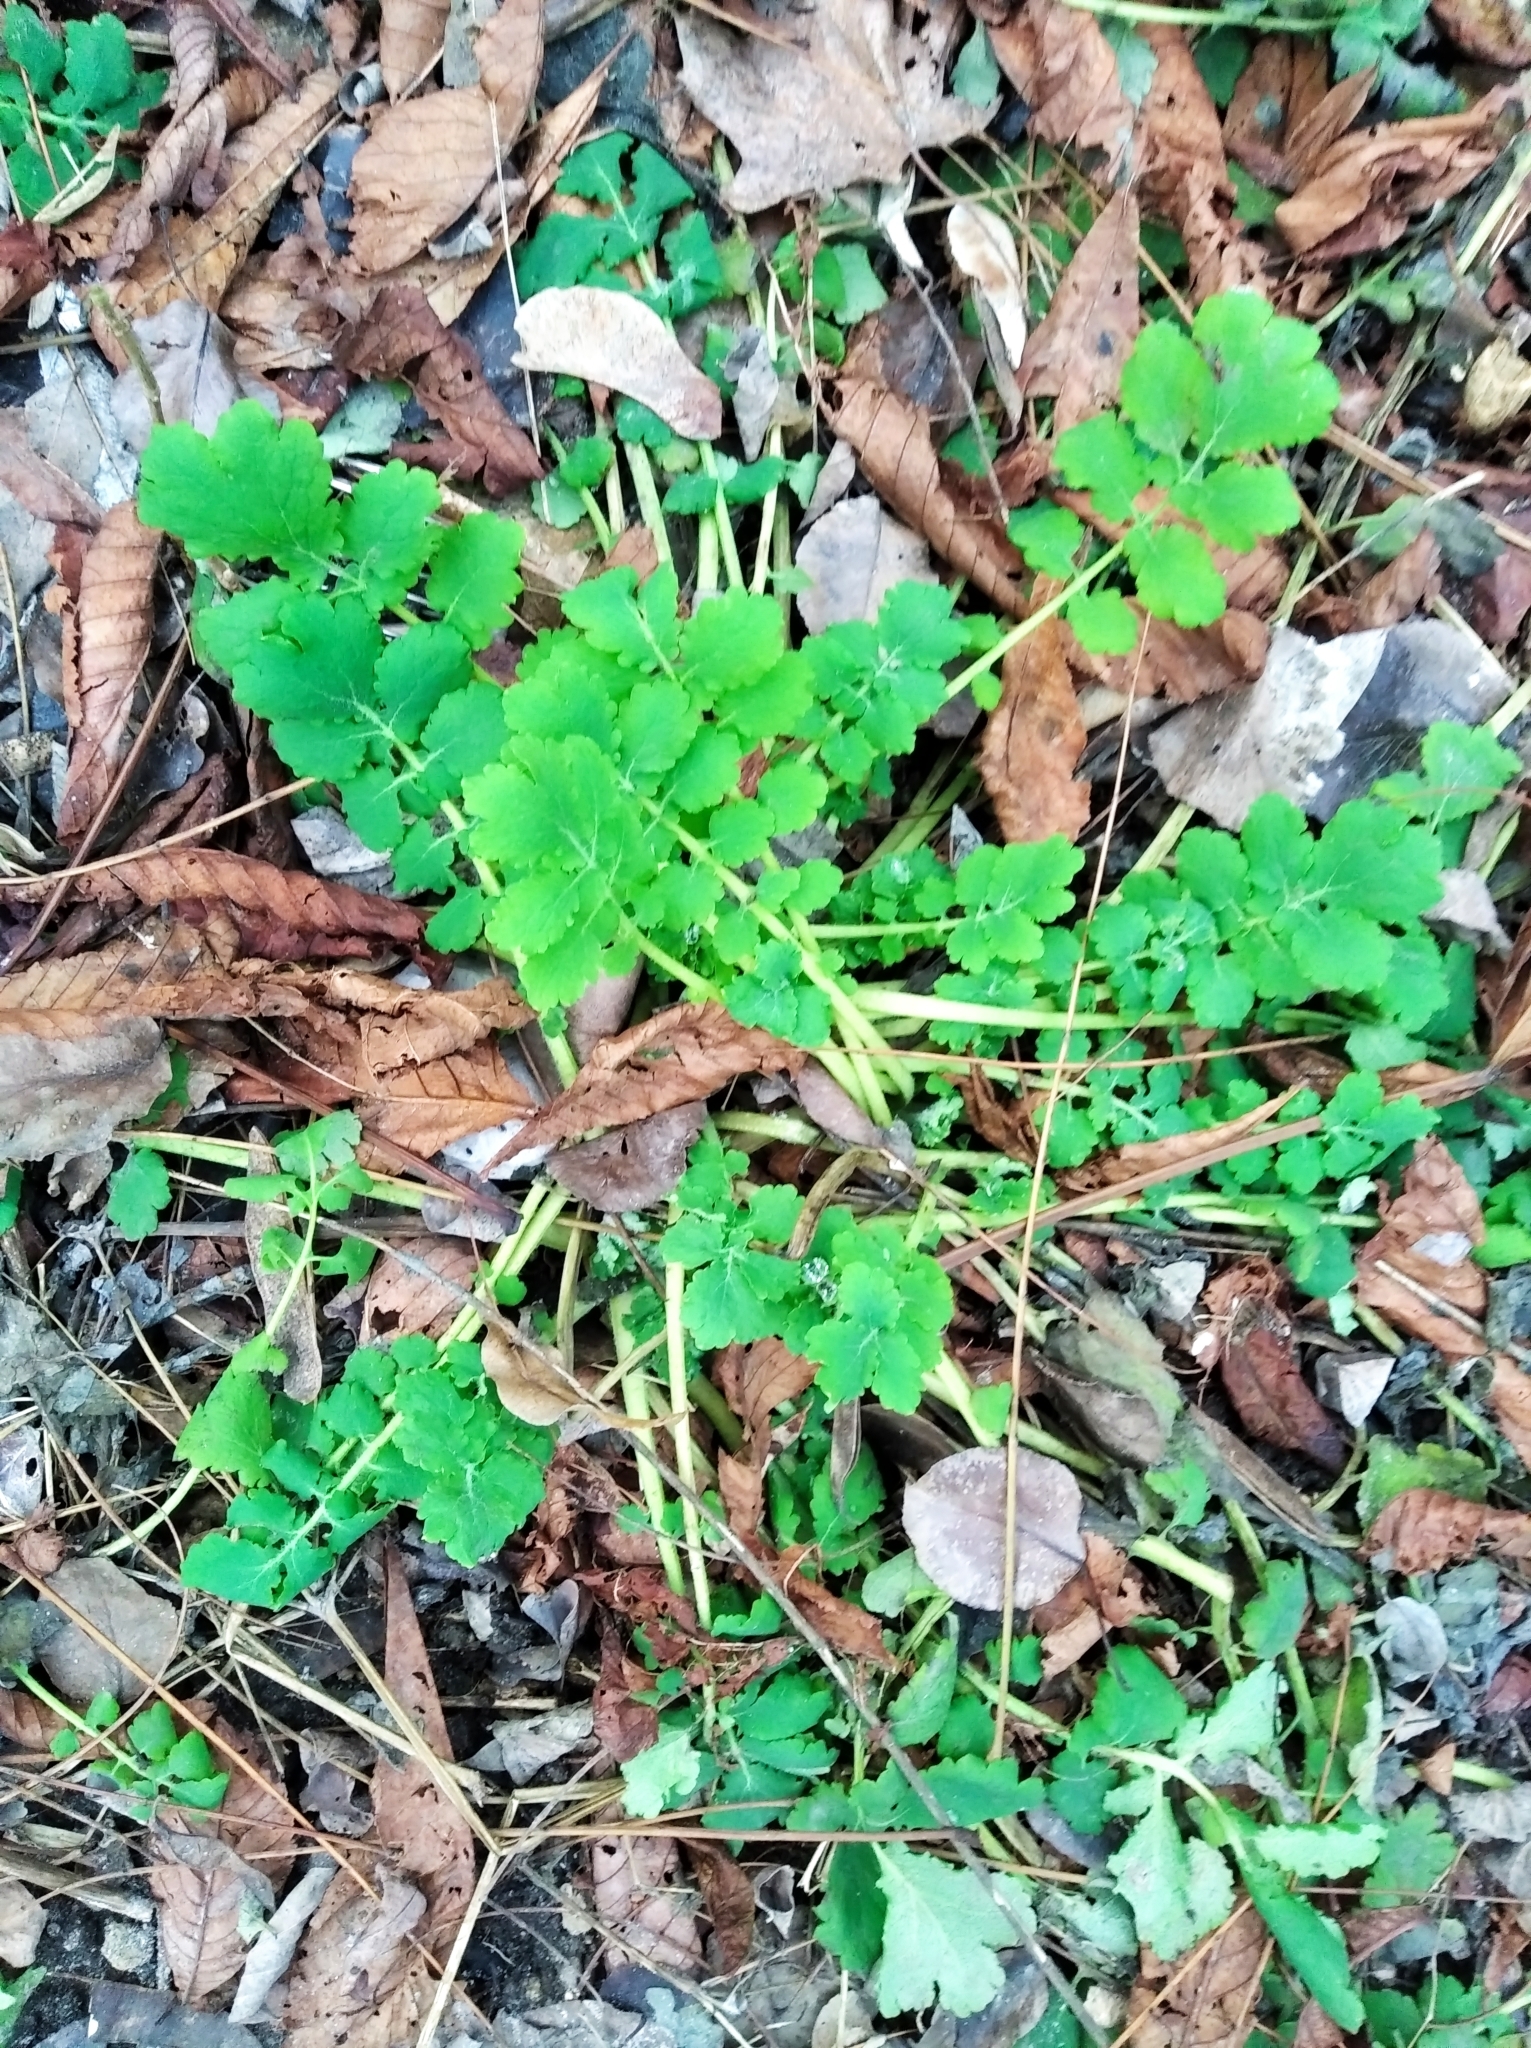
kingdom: Plantae
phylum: Tracheophyta
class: Magnoliopsida
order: Ranunculales
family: Papaveraceae
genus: Chelidonium
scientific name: Chelidonium majus
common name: Greater celandine
